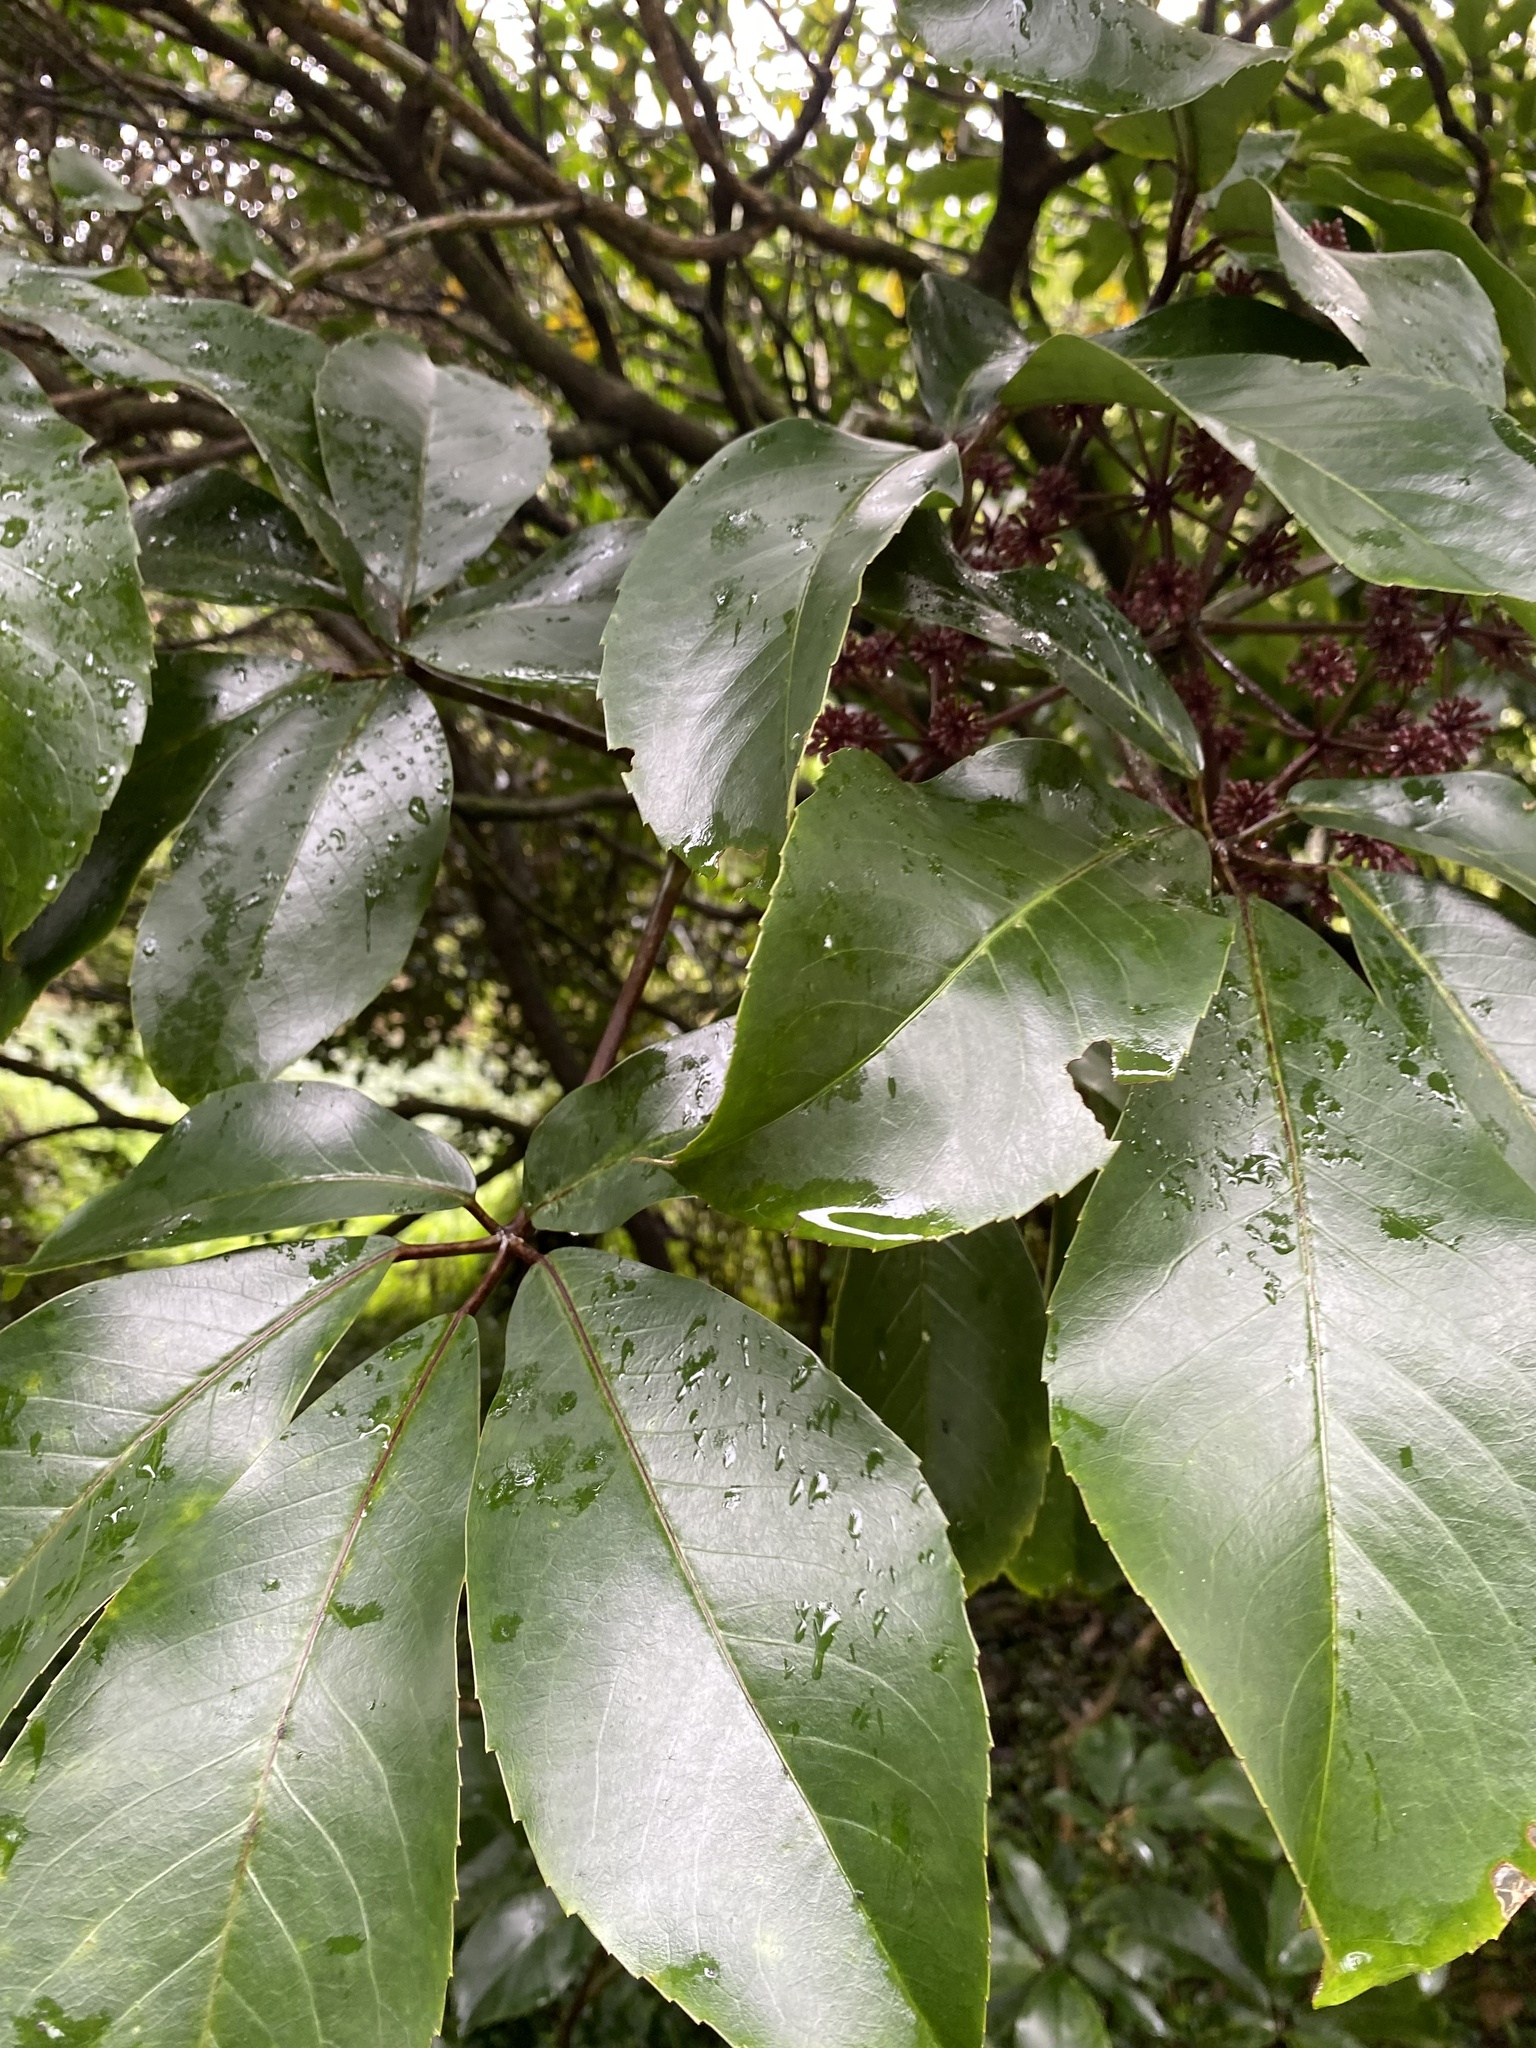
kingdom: Plantae
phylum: Tracheophyta
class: Magnoliopsida
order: Apiales
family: Araliaceae
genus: Neopanax
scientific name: Neopanax laetus
